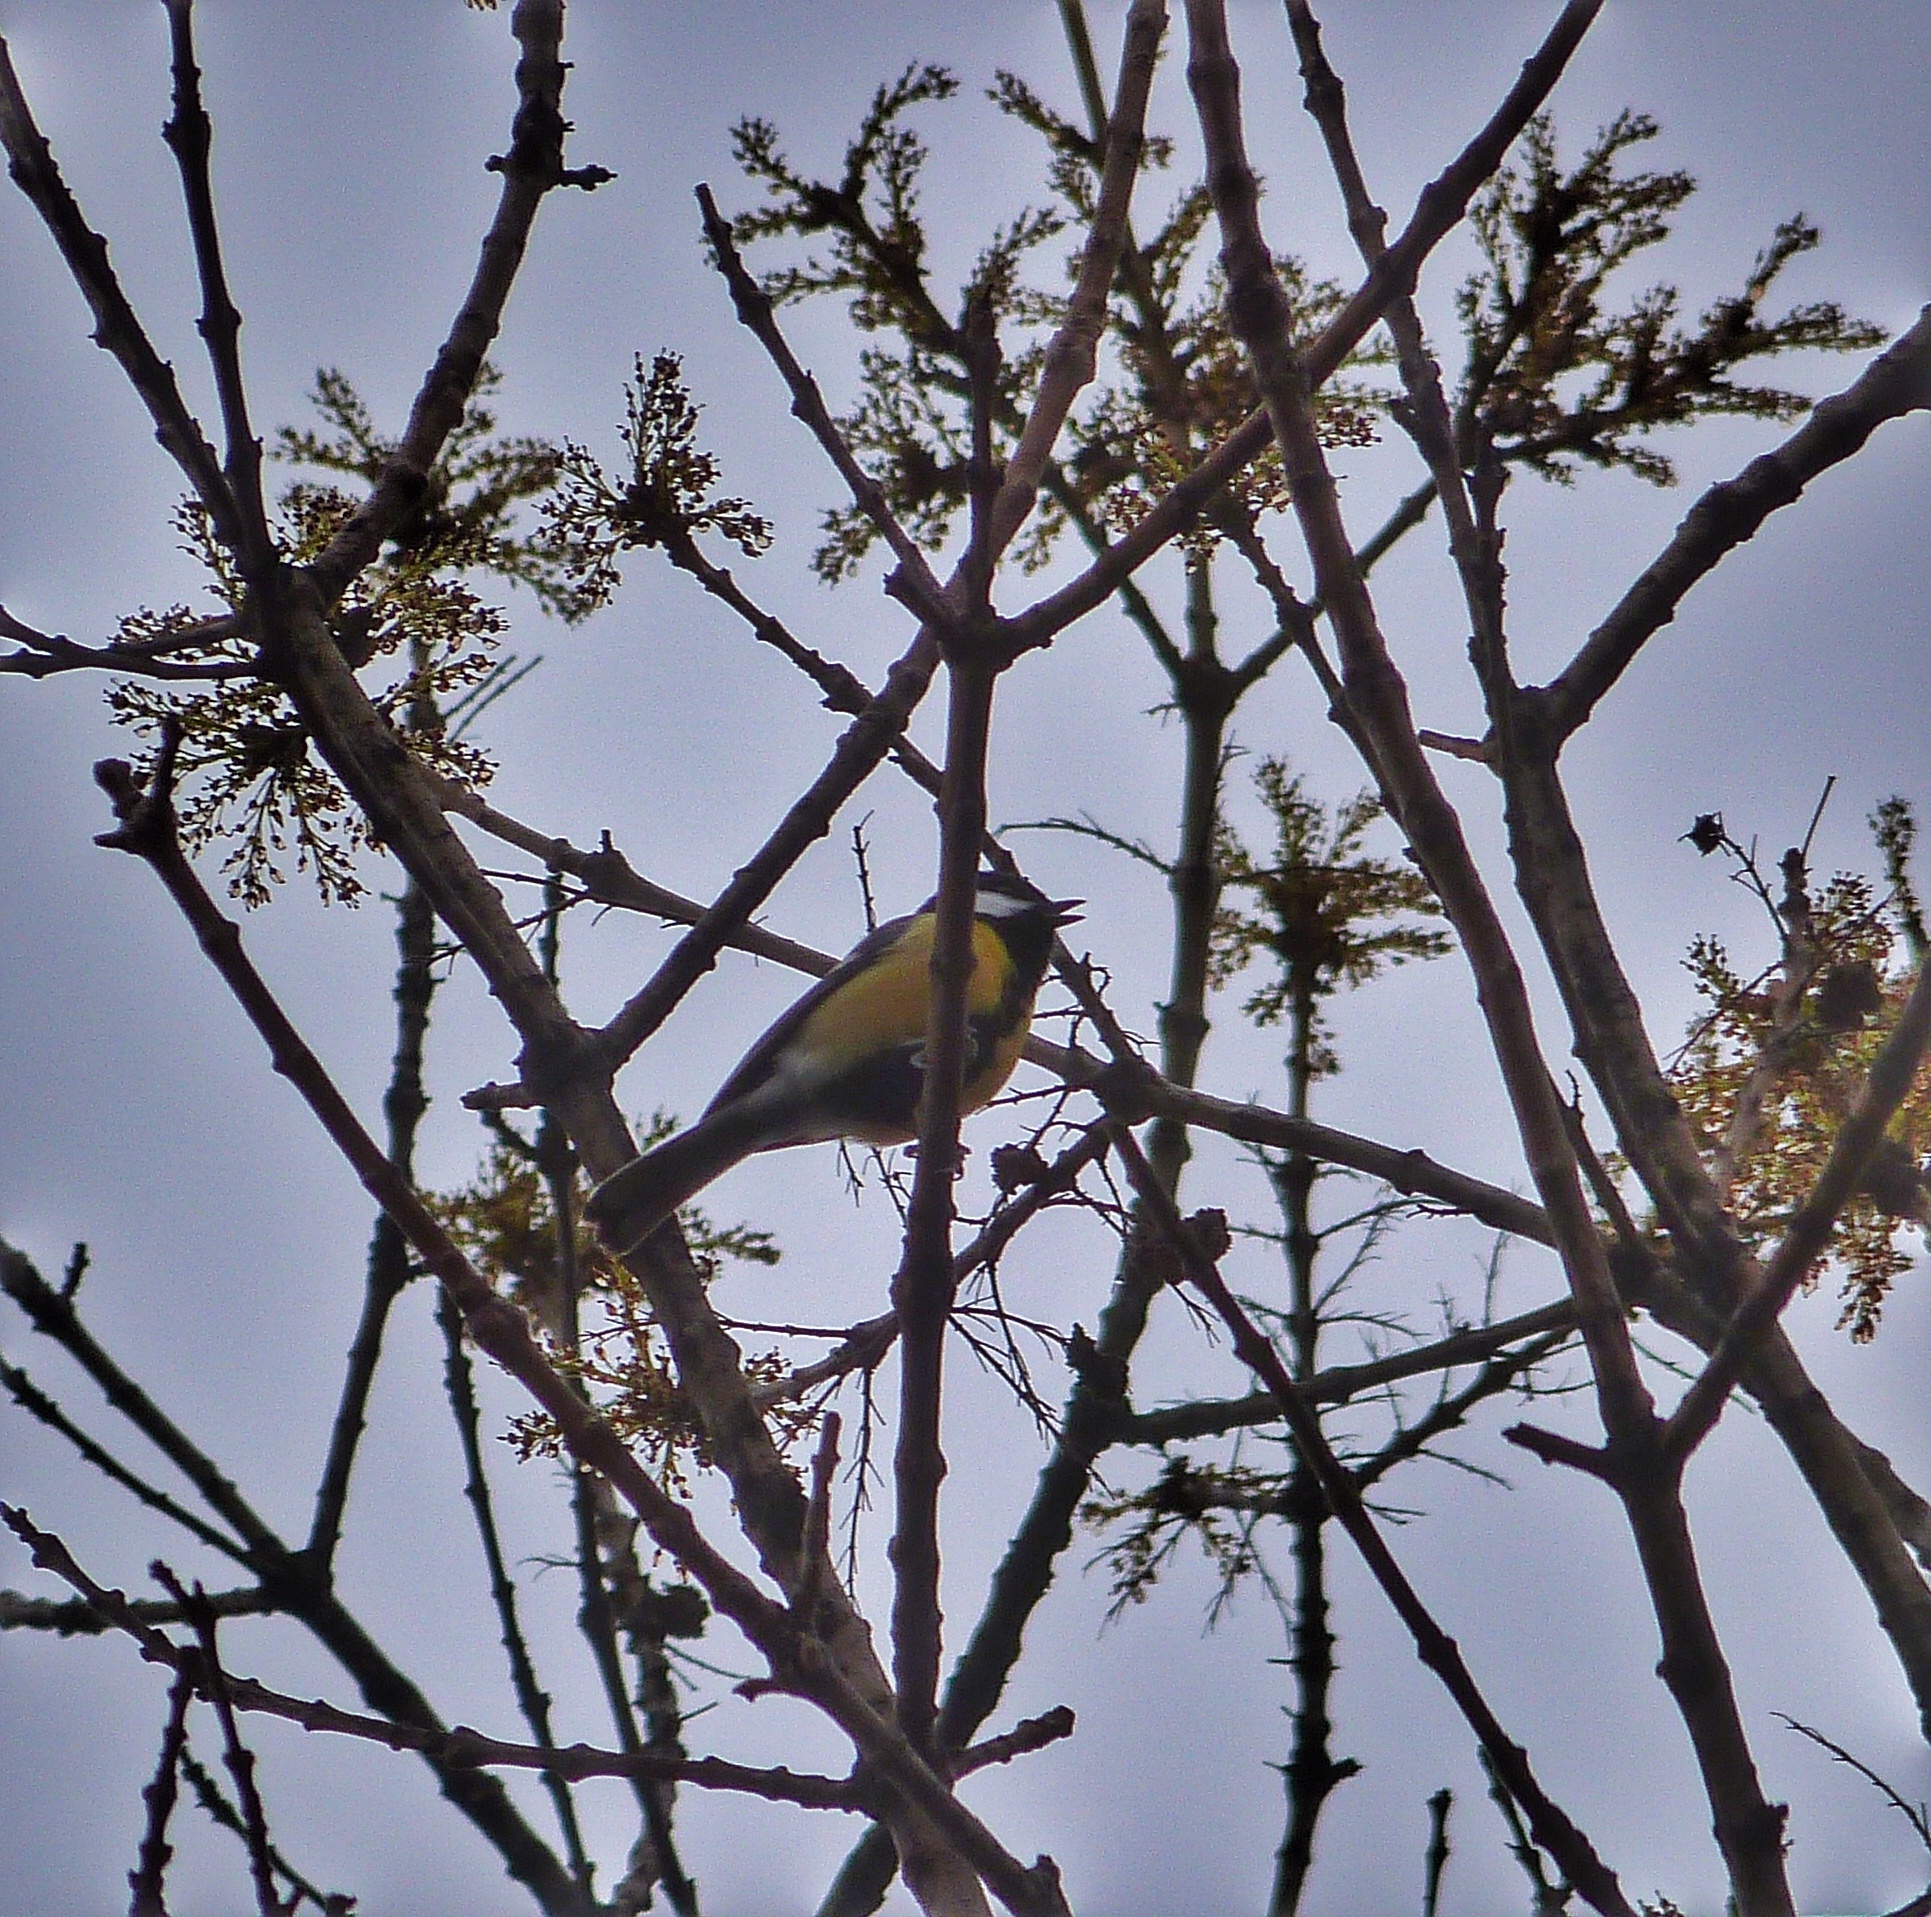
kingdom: Animalia
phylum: Chordata
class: Aves
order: Passeriformes
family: Paridae
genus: Parus
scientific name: Parus major
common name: Great tit
